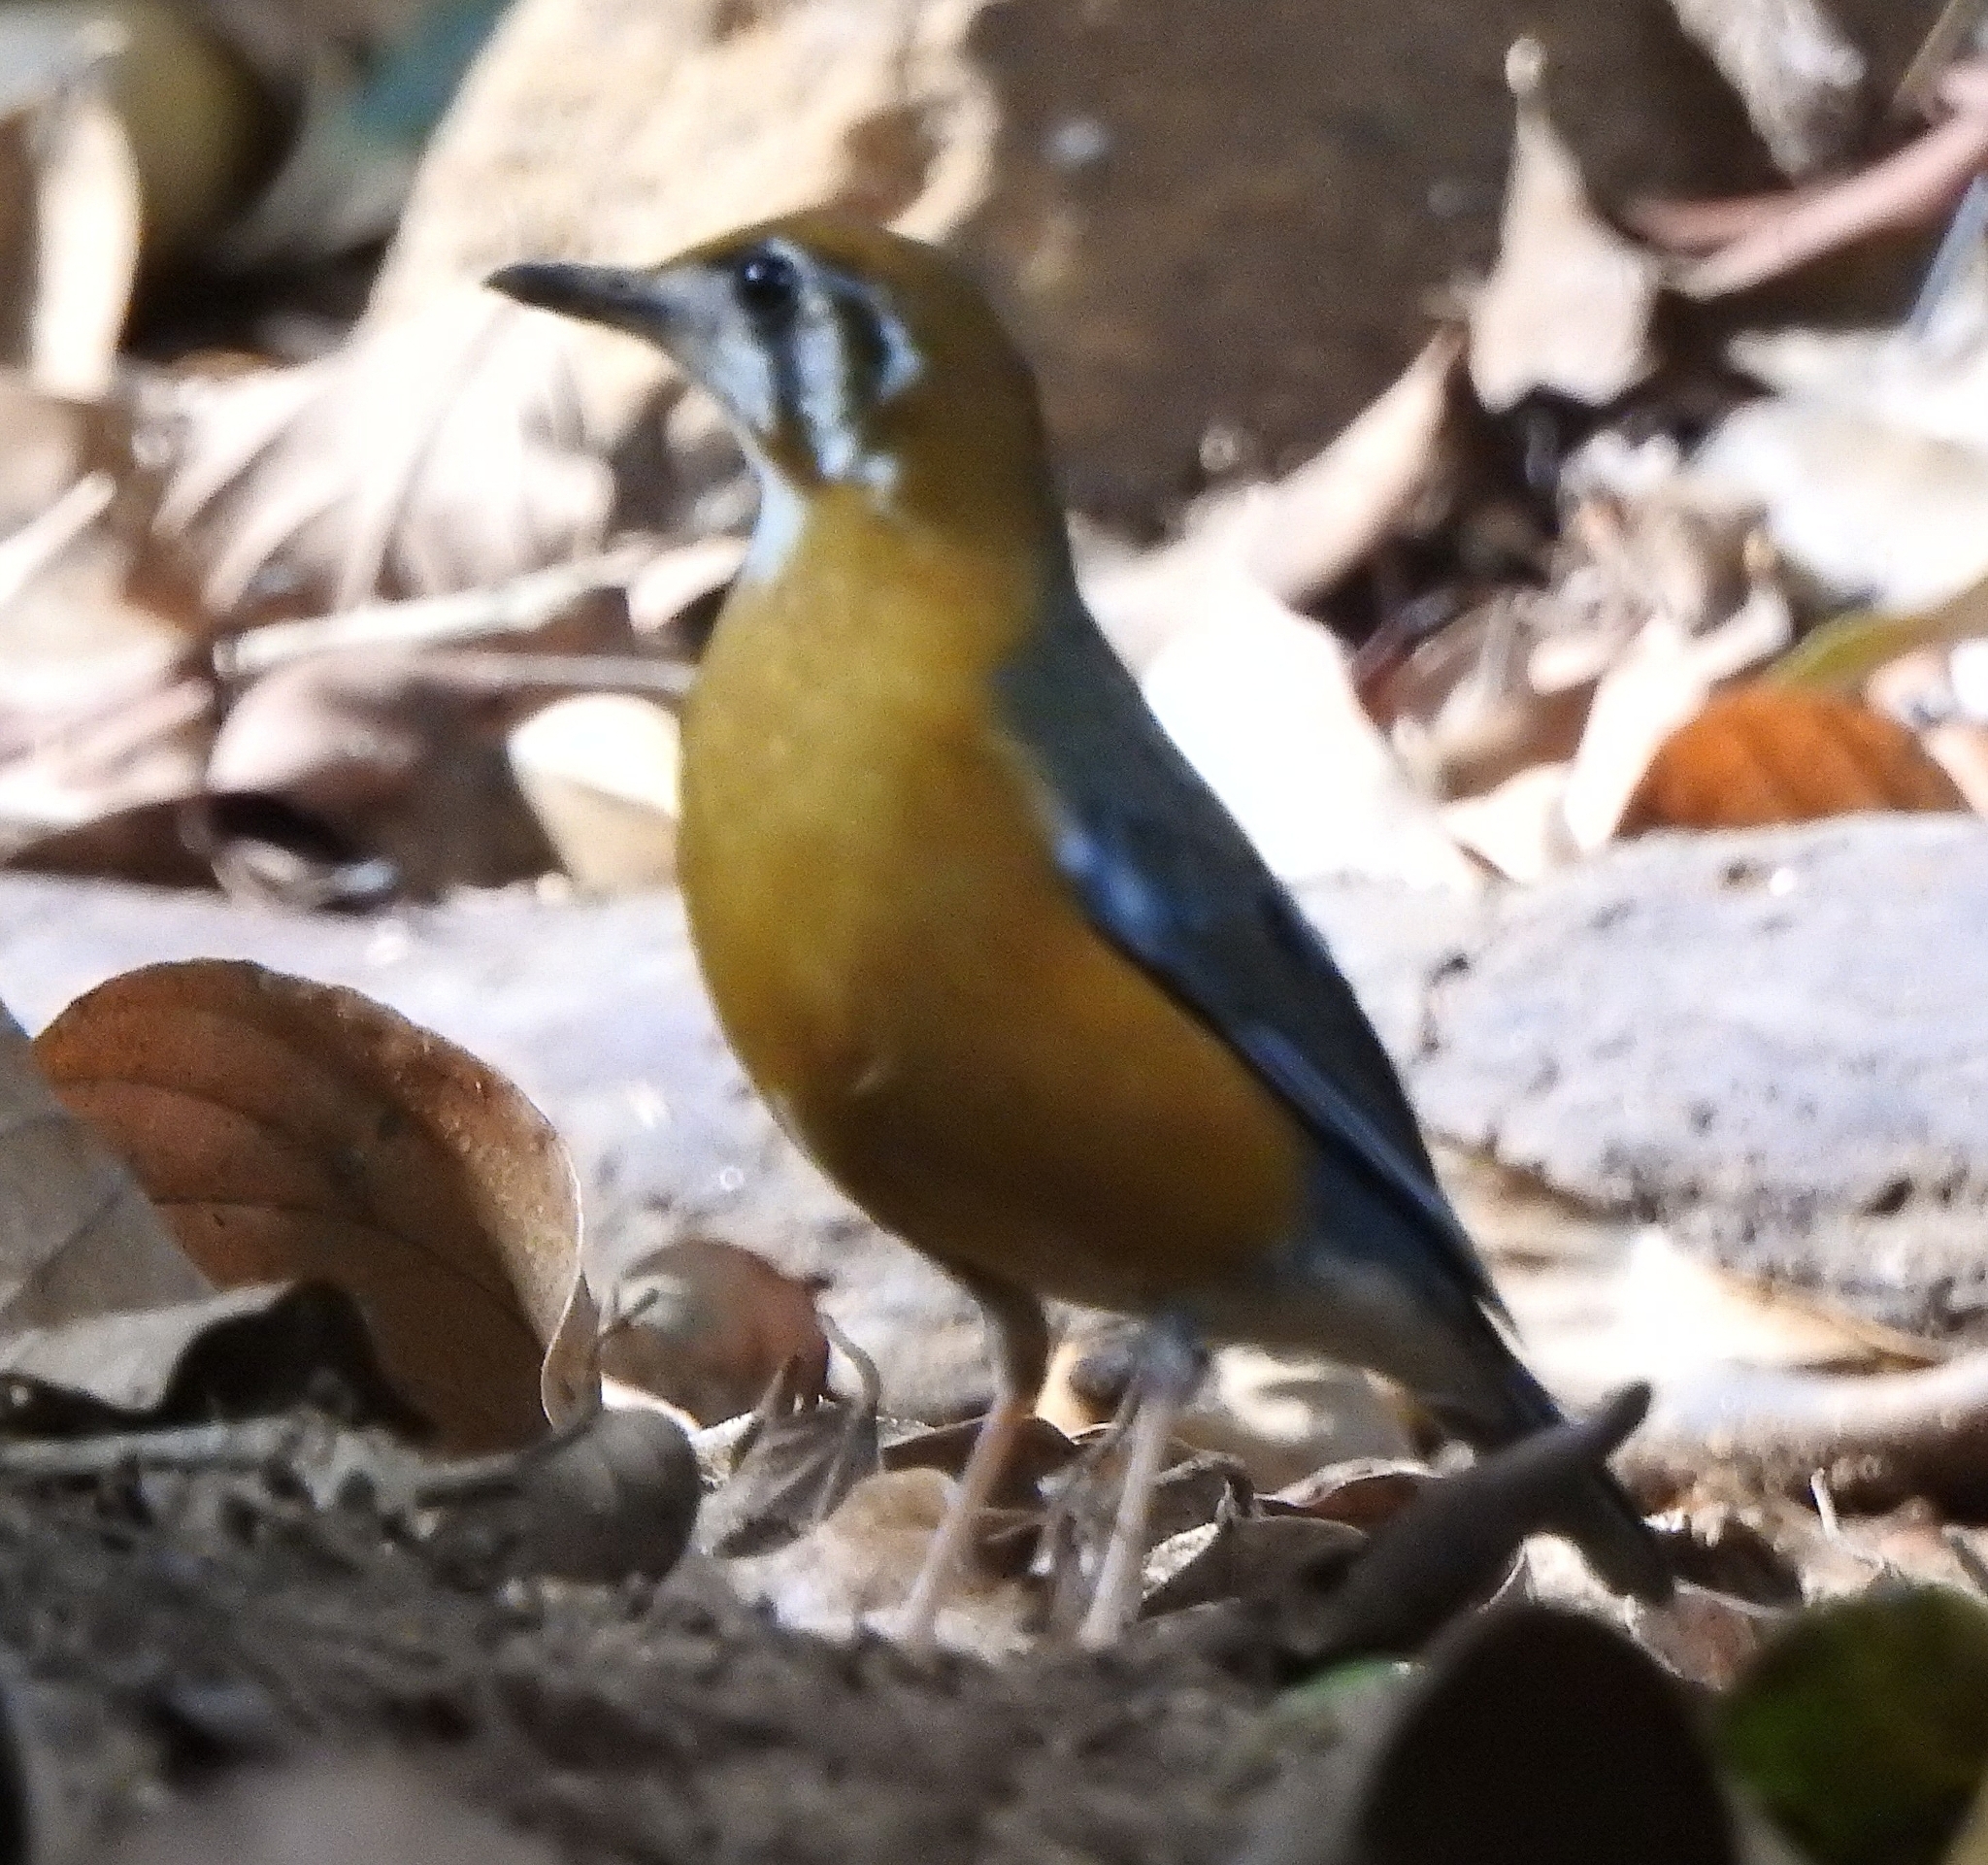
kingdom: Animalia
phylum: Chordata
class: Aves
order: Passeriformes
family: Turdidae
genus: Geokichla
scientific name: Geokichla citrina
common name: Orange-headed thrush
